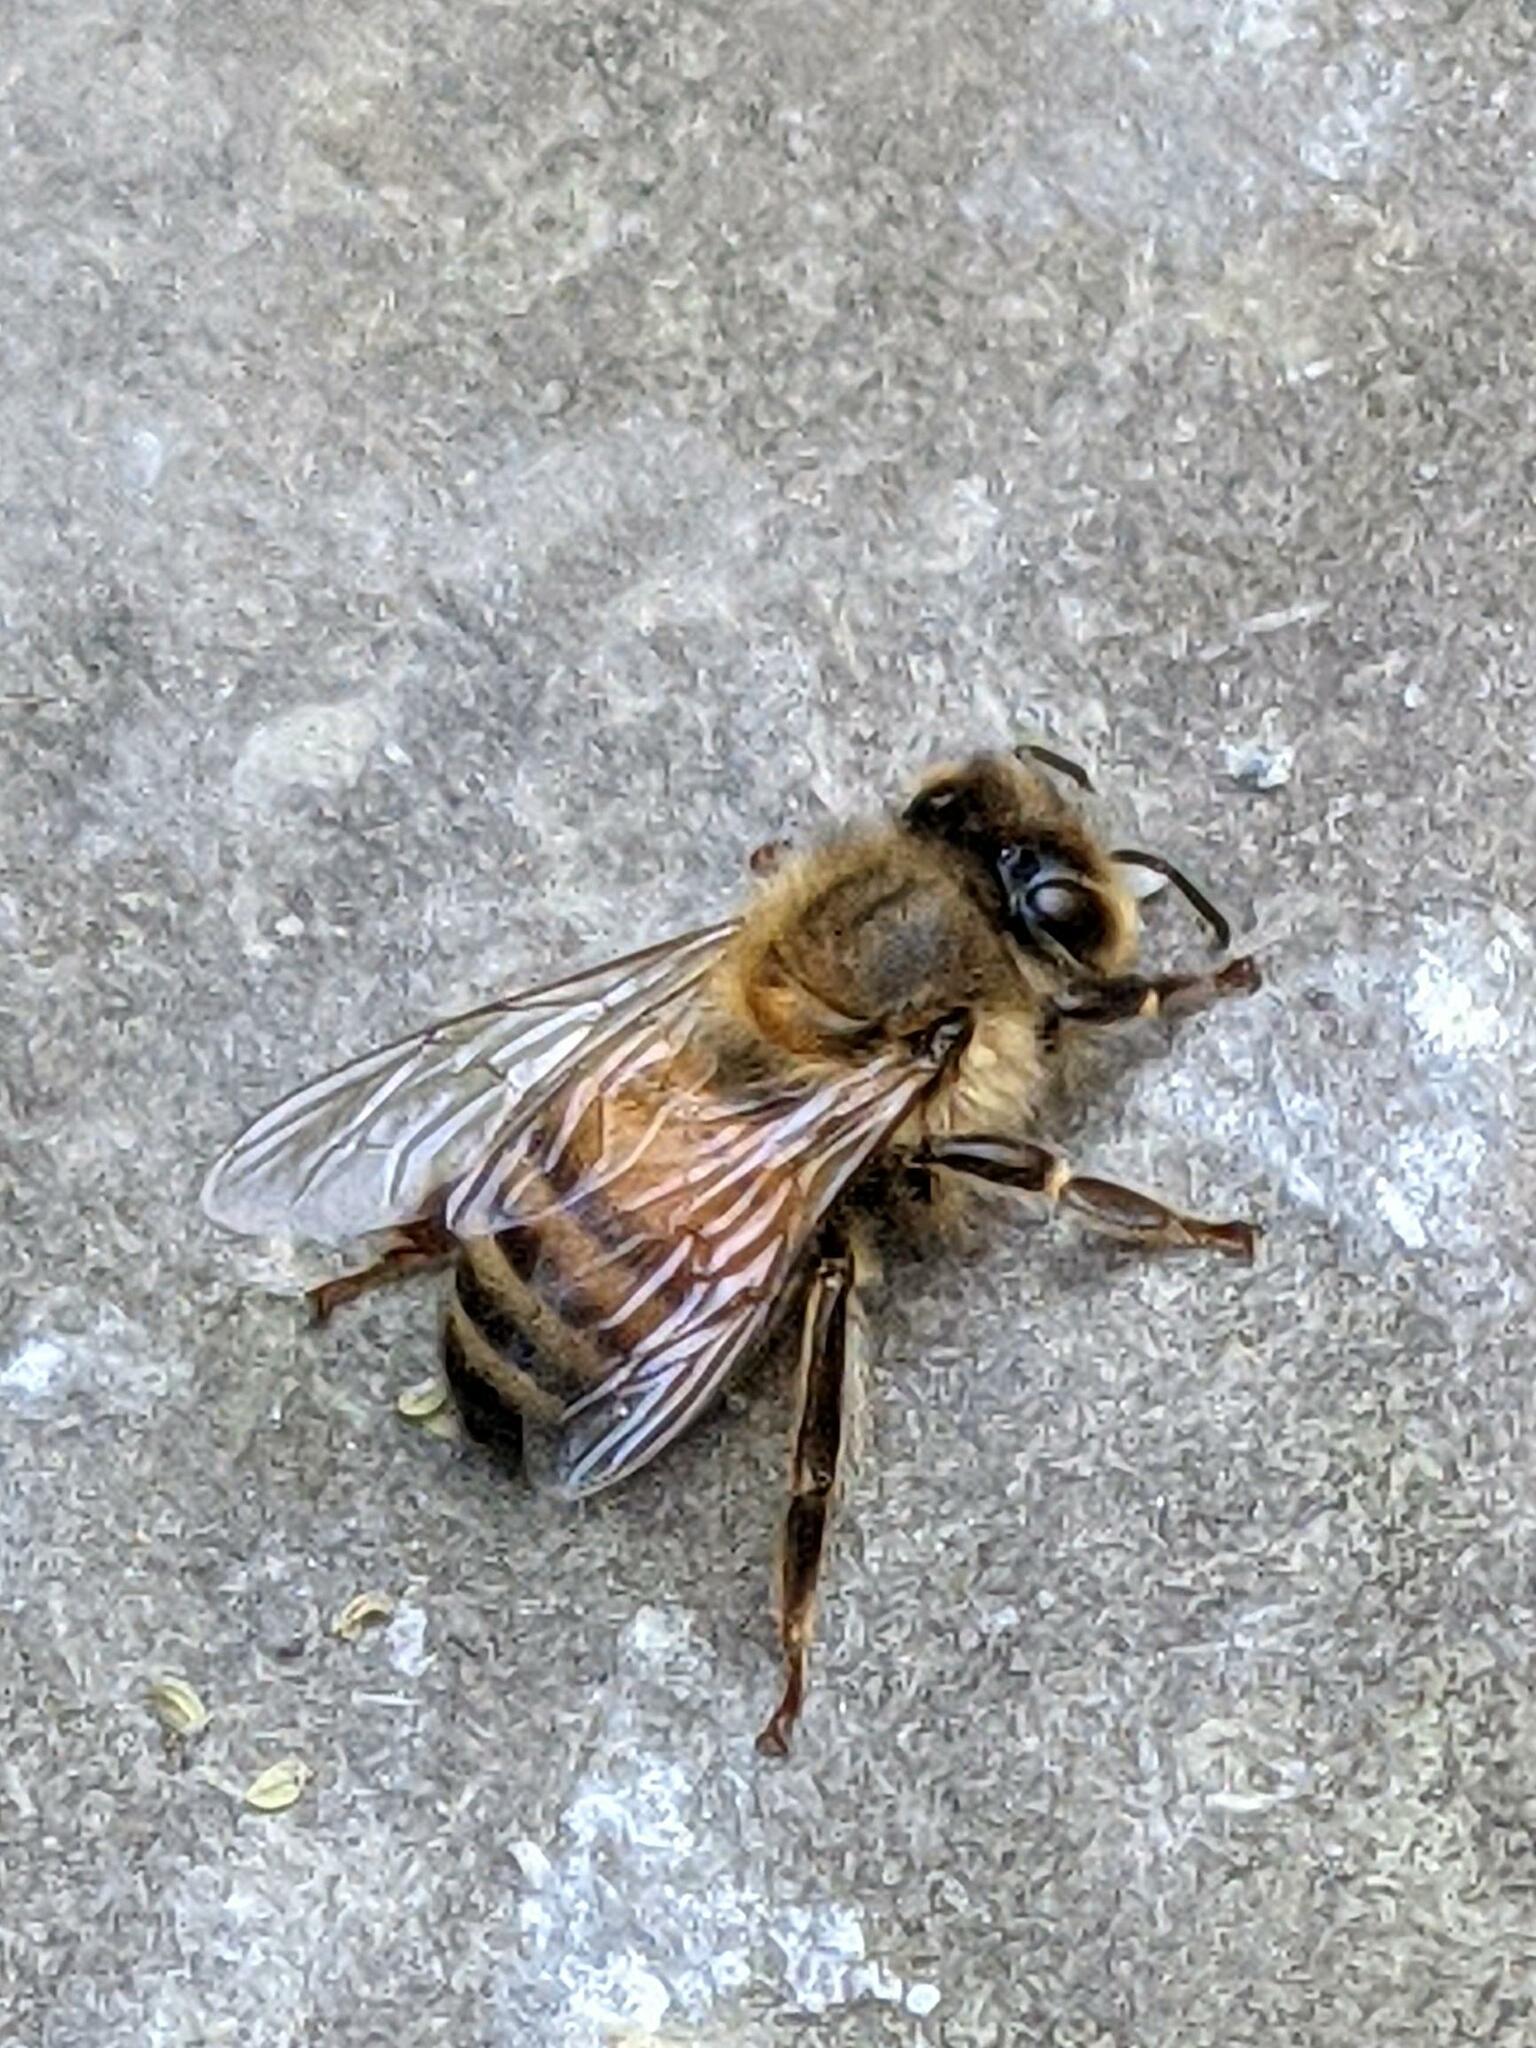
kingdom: Animalia
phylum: Arthropoda
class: Insecta
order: Hymenoptera
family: Apidae
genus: Apis
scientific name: Apis mellifera
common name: Honey bee
